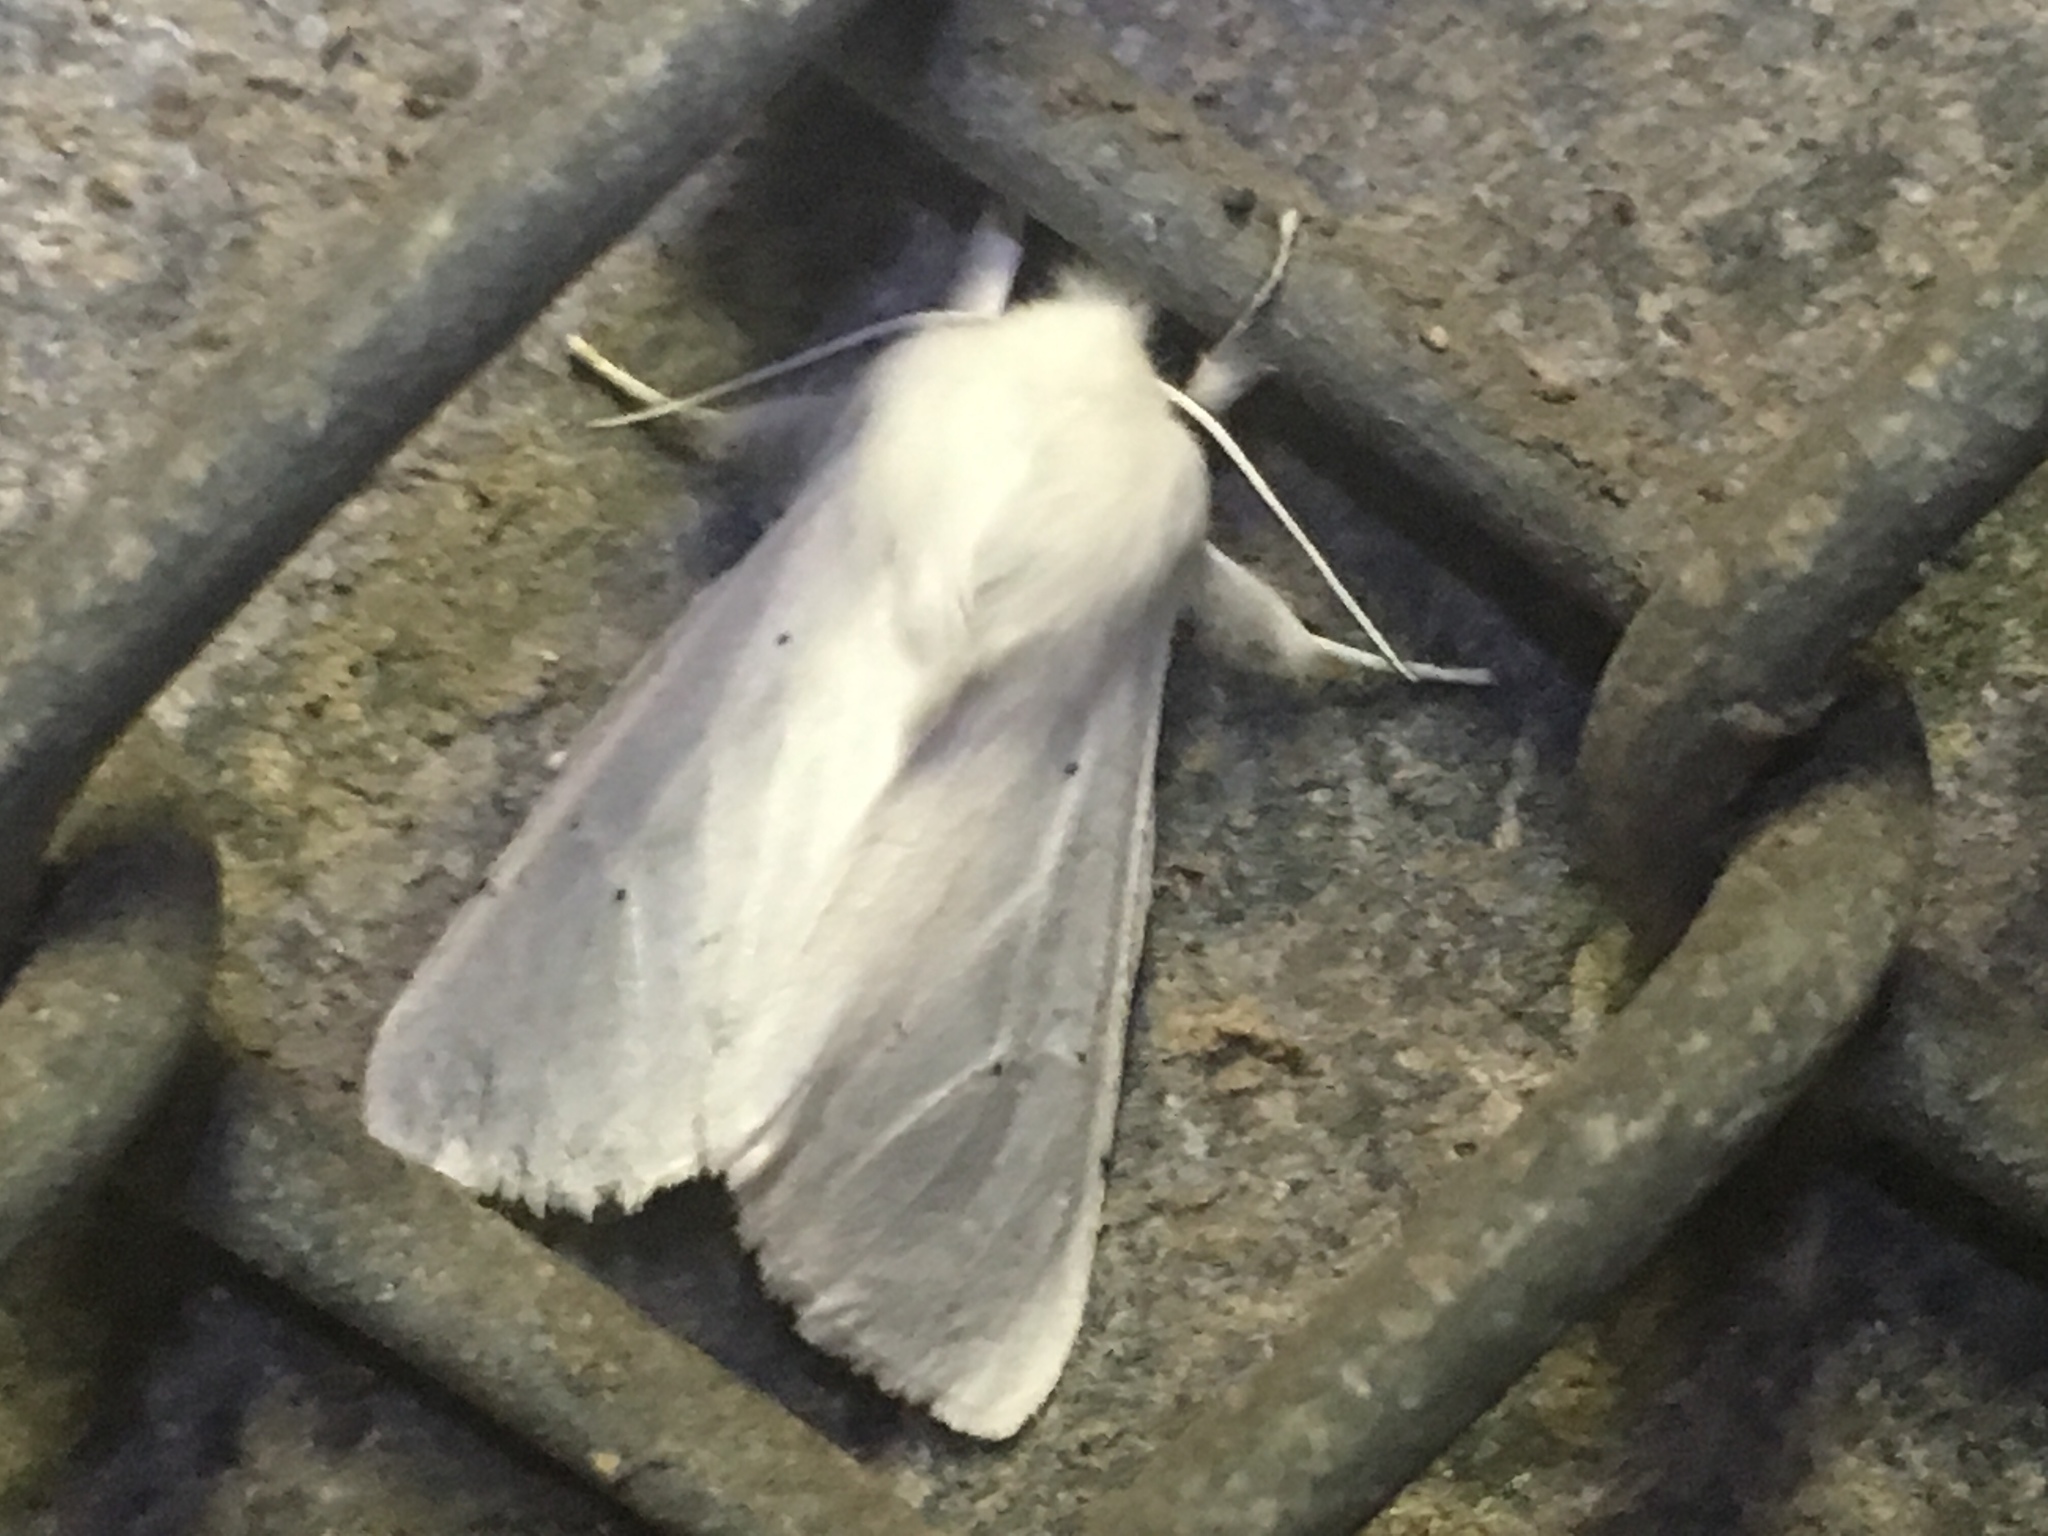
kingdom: Animalia
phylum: Arthropoda
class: Insecta
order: Lepidoptera
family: Erebidae
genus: Spilosoma
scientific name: Spilosoma vestalis
